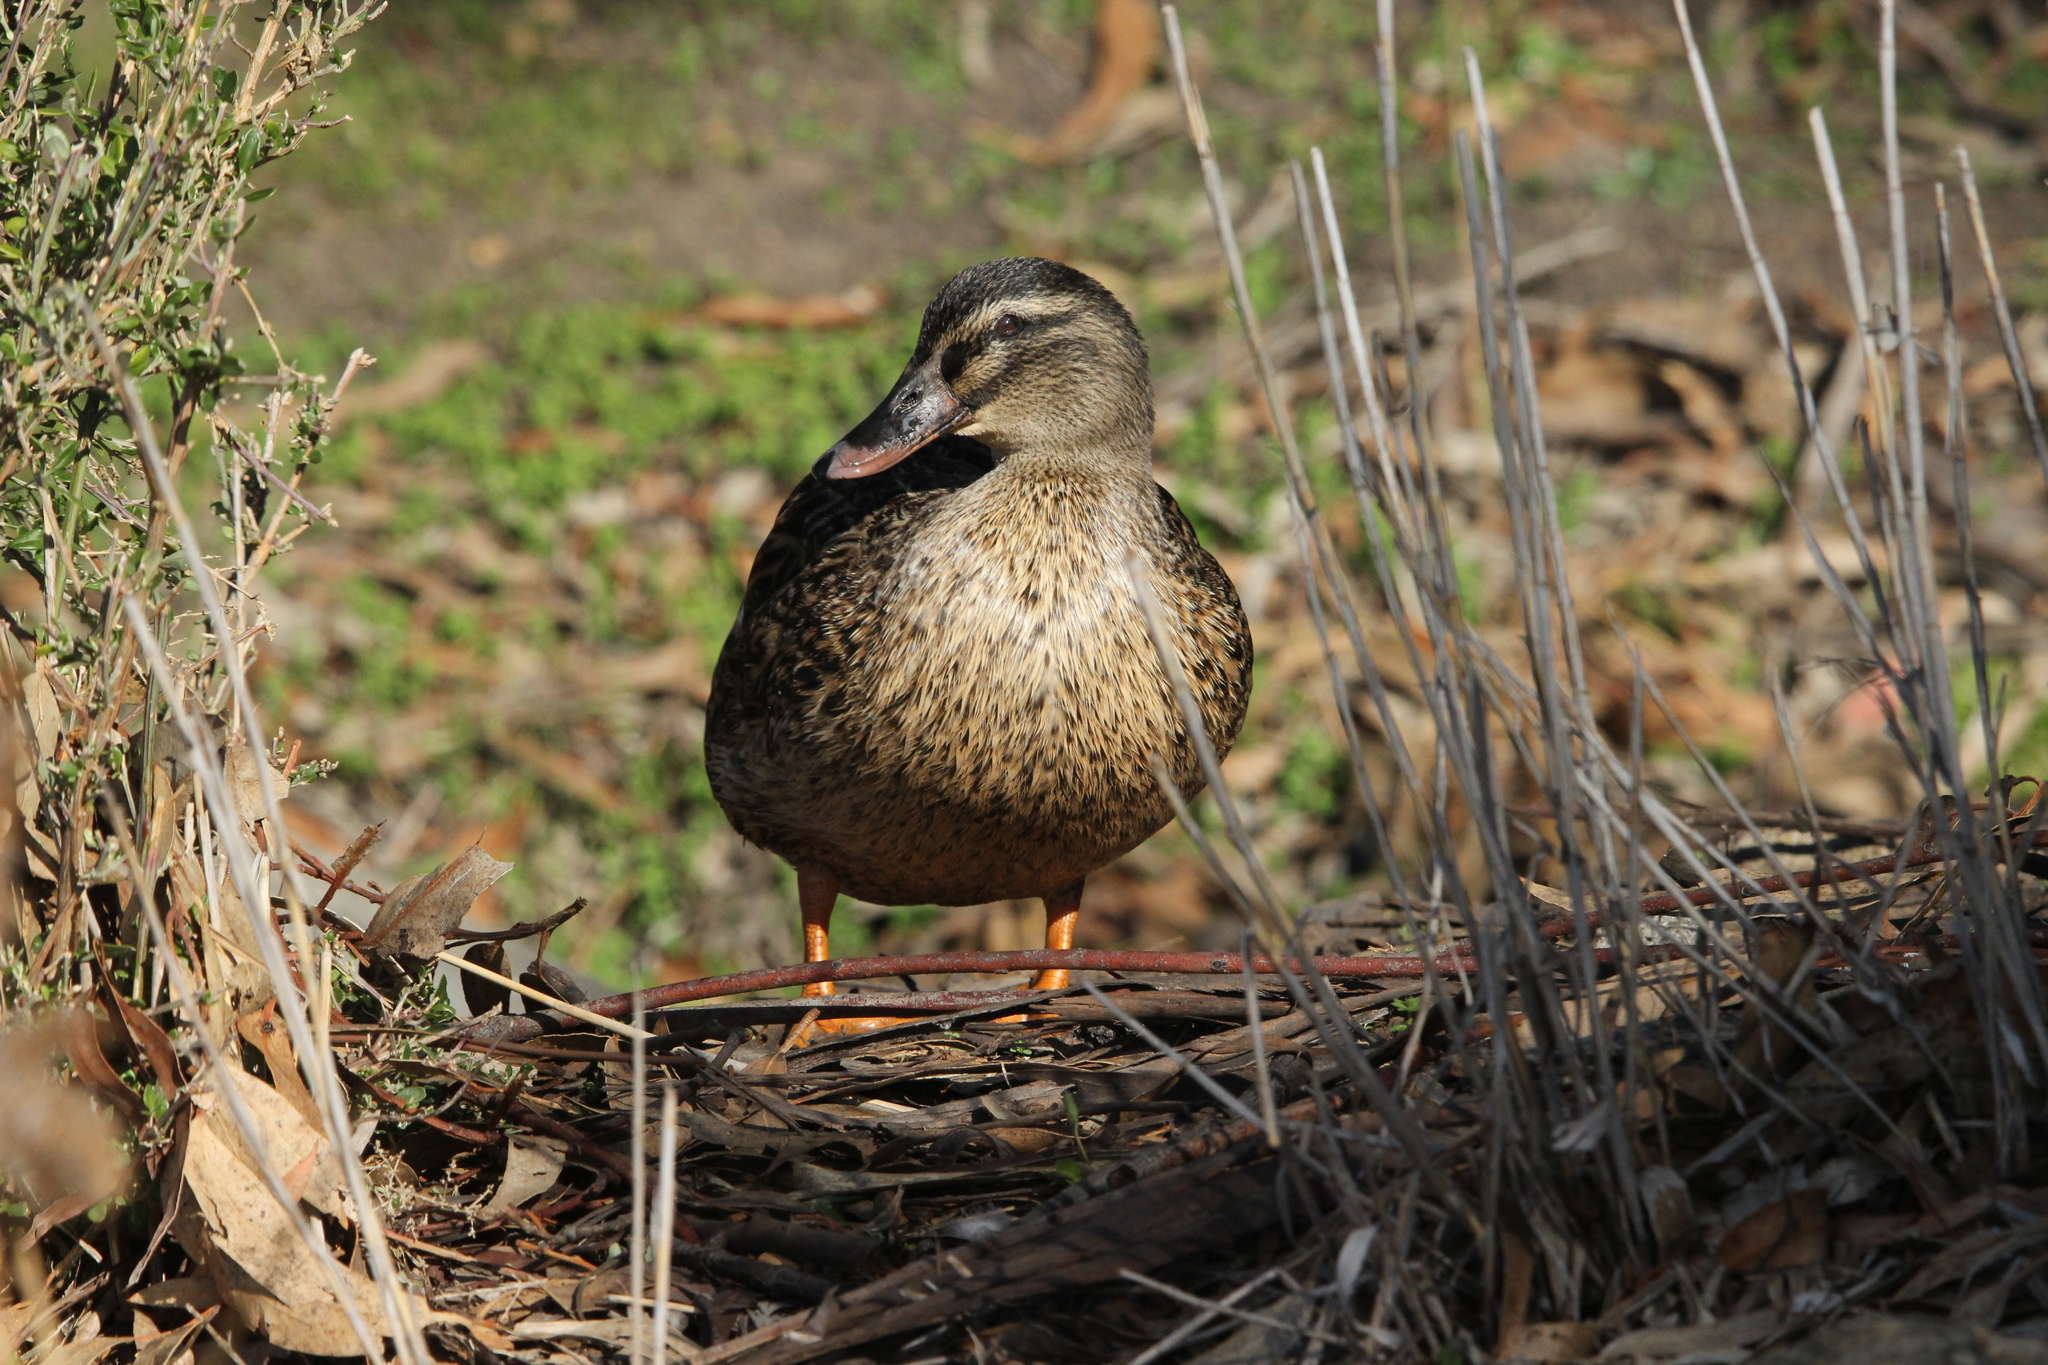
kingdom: Animalia
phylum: Chordata
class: Aves
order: Anseriformes
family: Anatidae
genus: Anas
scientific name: Anas platyrhynchos
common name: Mallard
